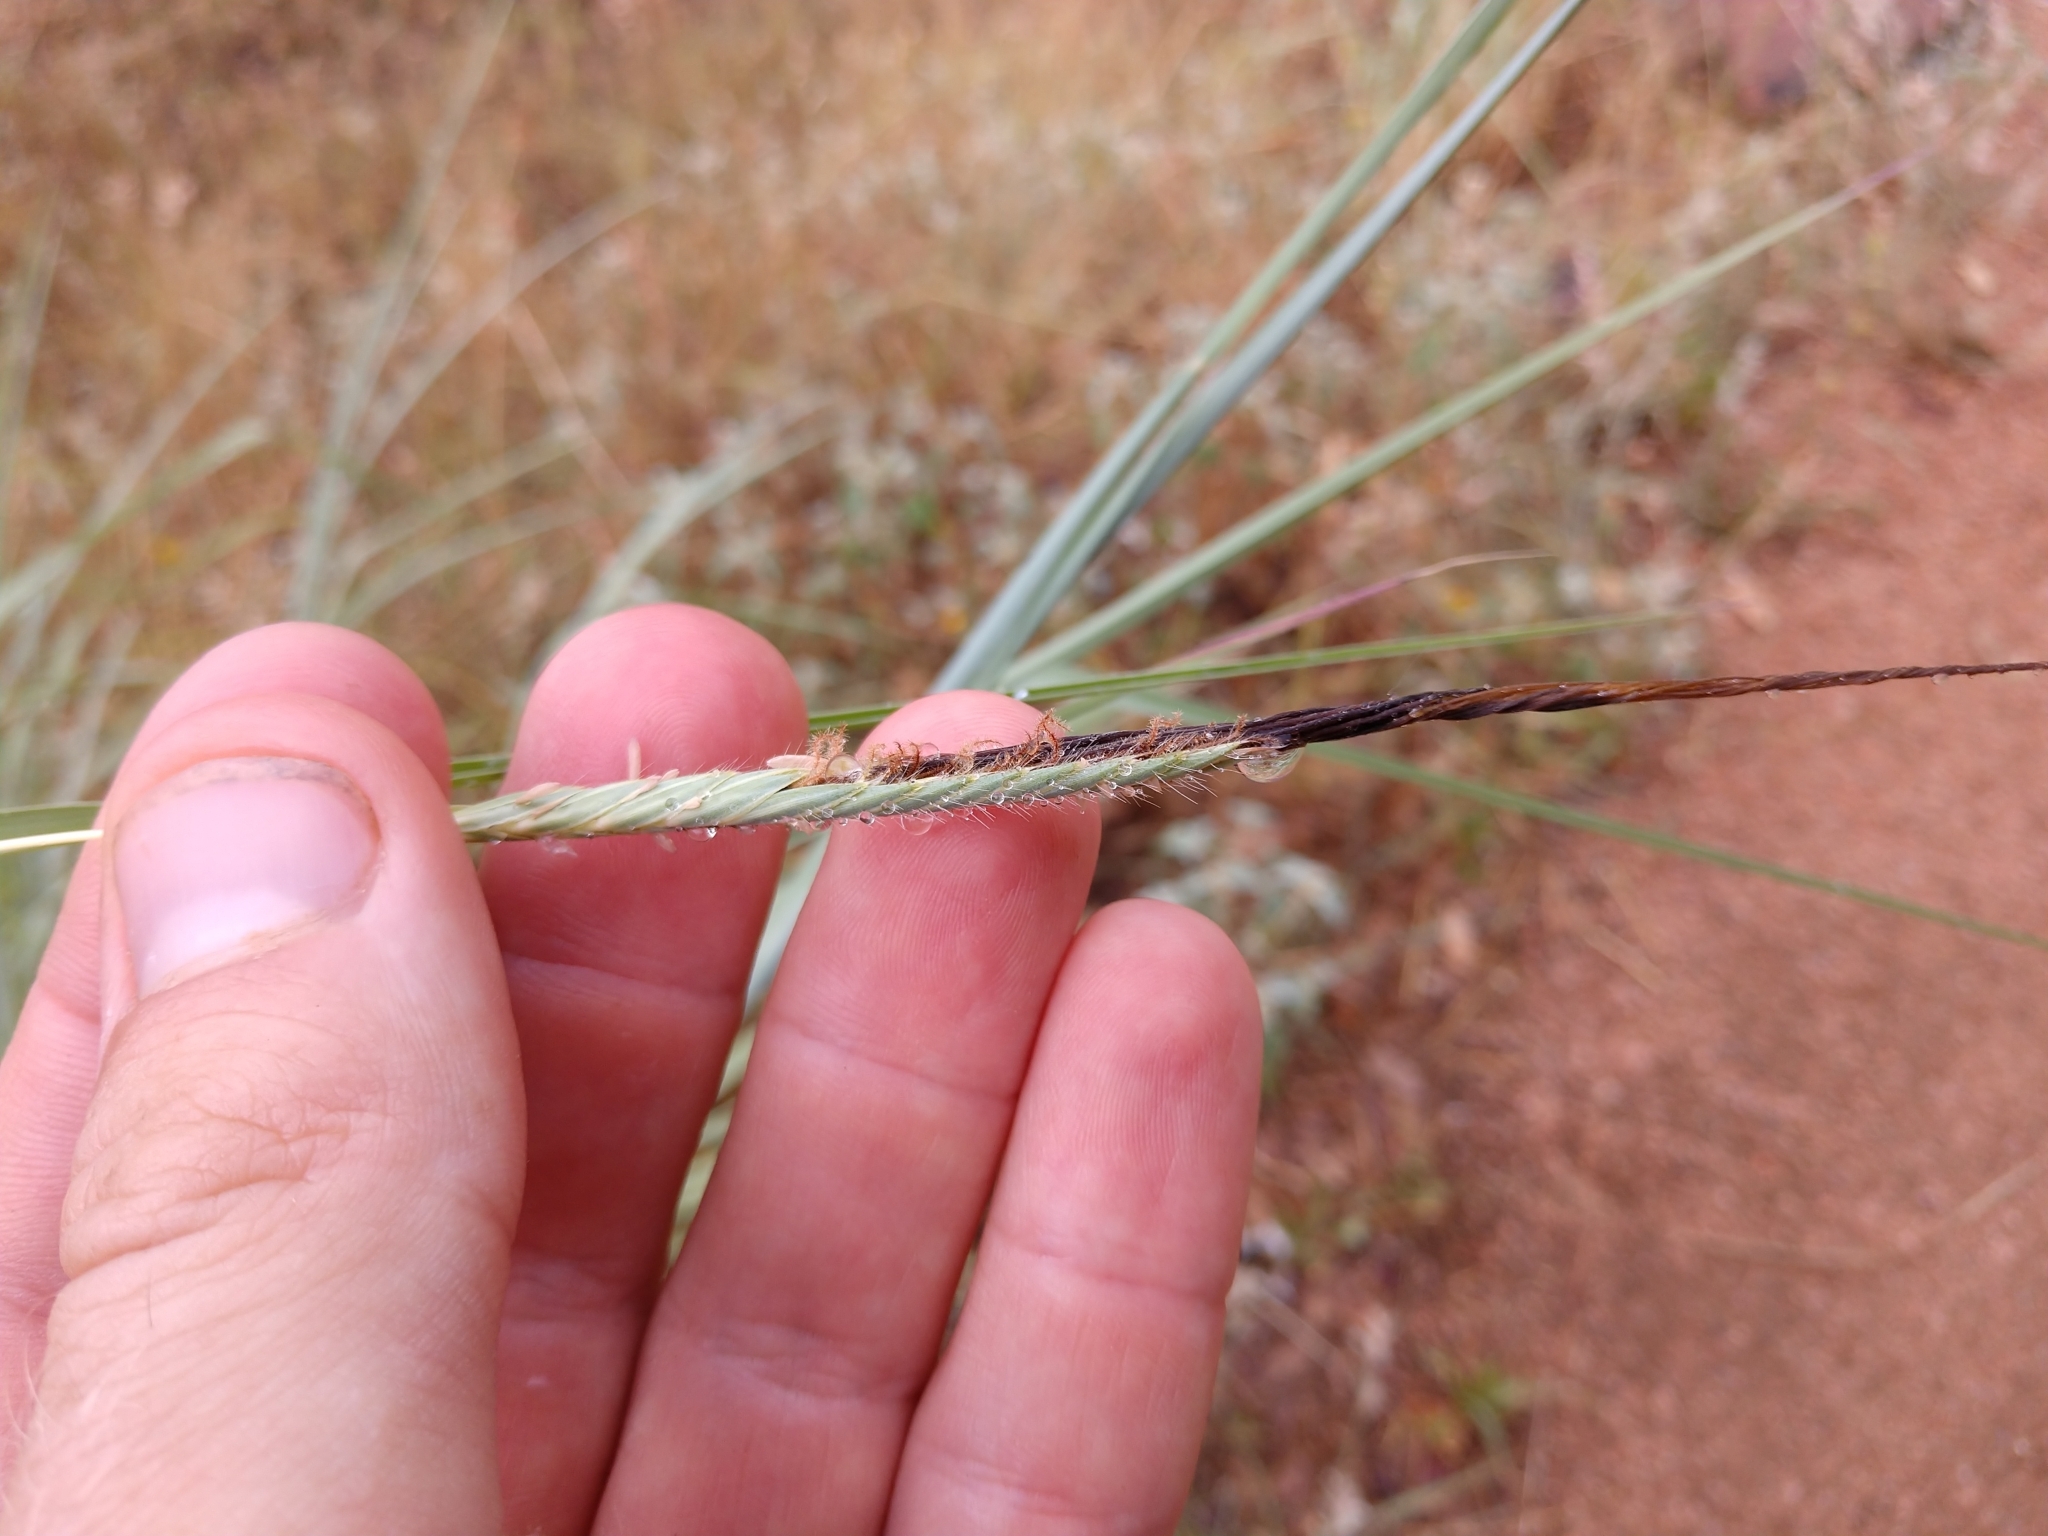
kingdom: Plantae
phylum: Tracheophyta
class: Liliopsida
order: Poales
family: Poaceae
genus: Heteropogon
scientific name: Heteropogon contortus
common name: Tanglehead
